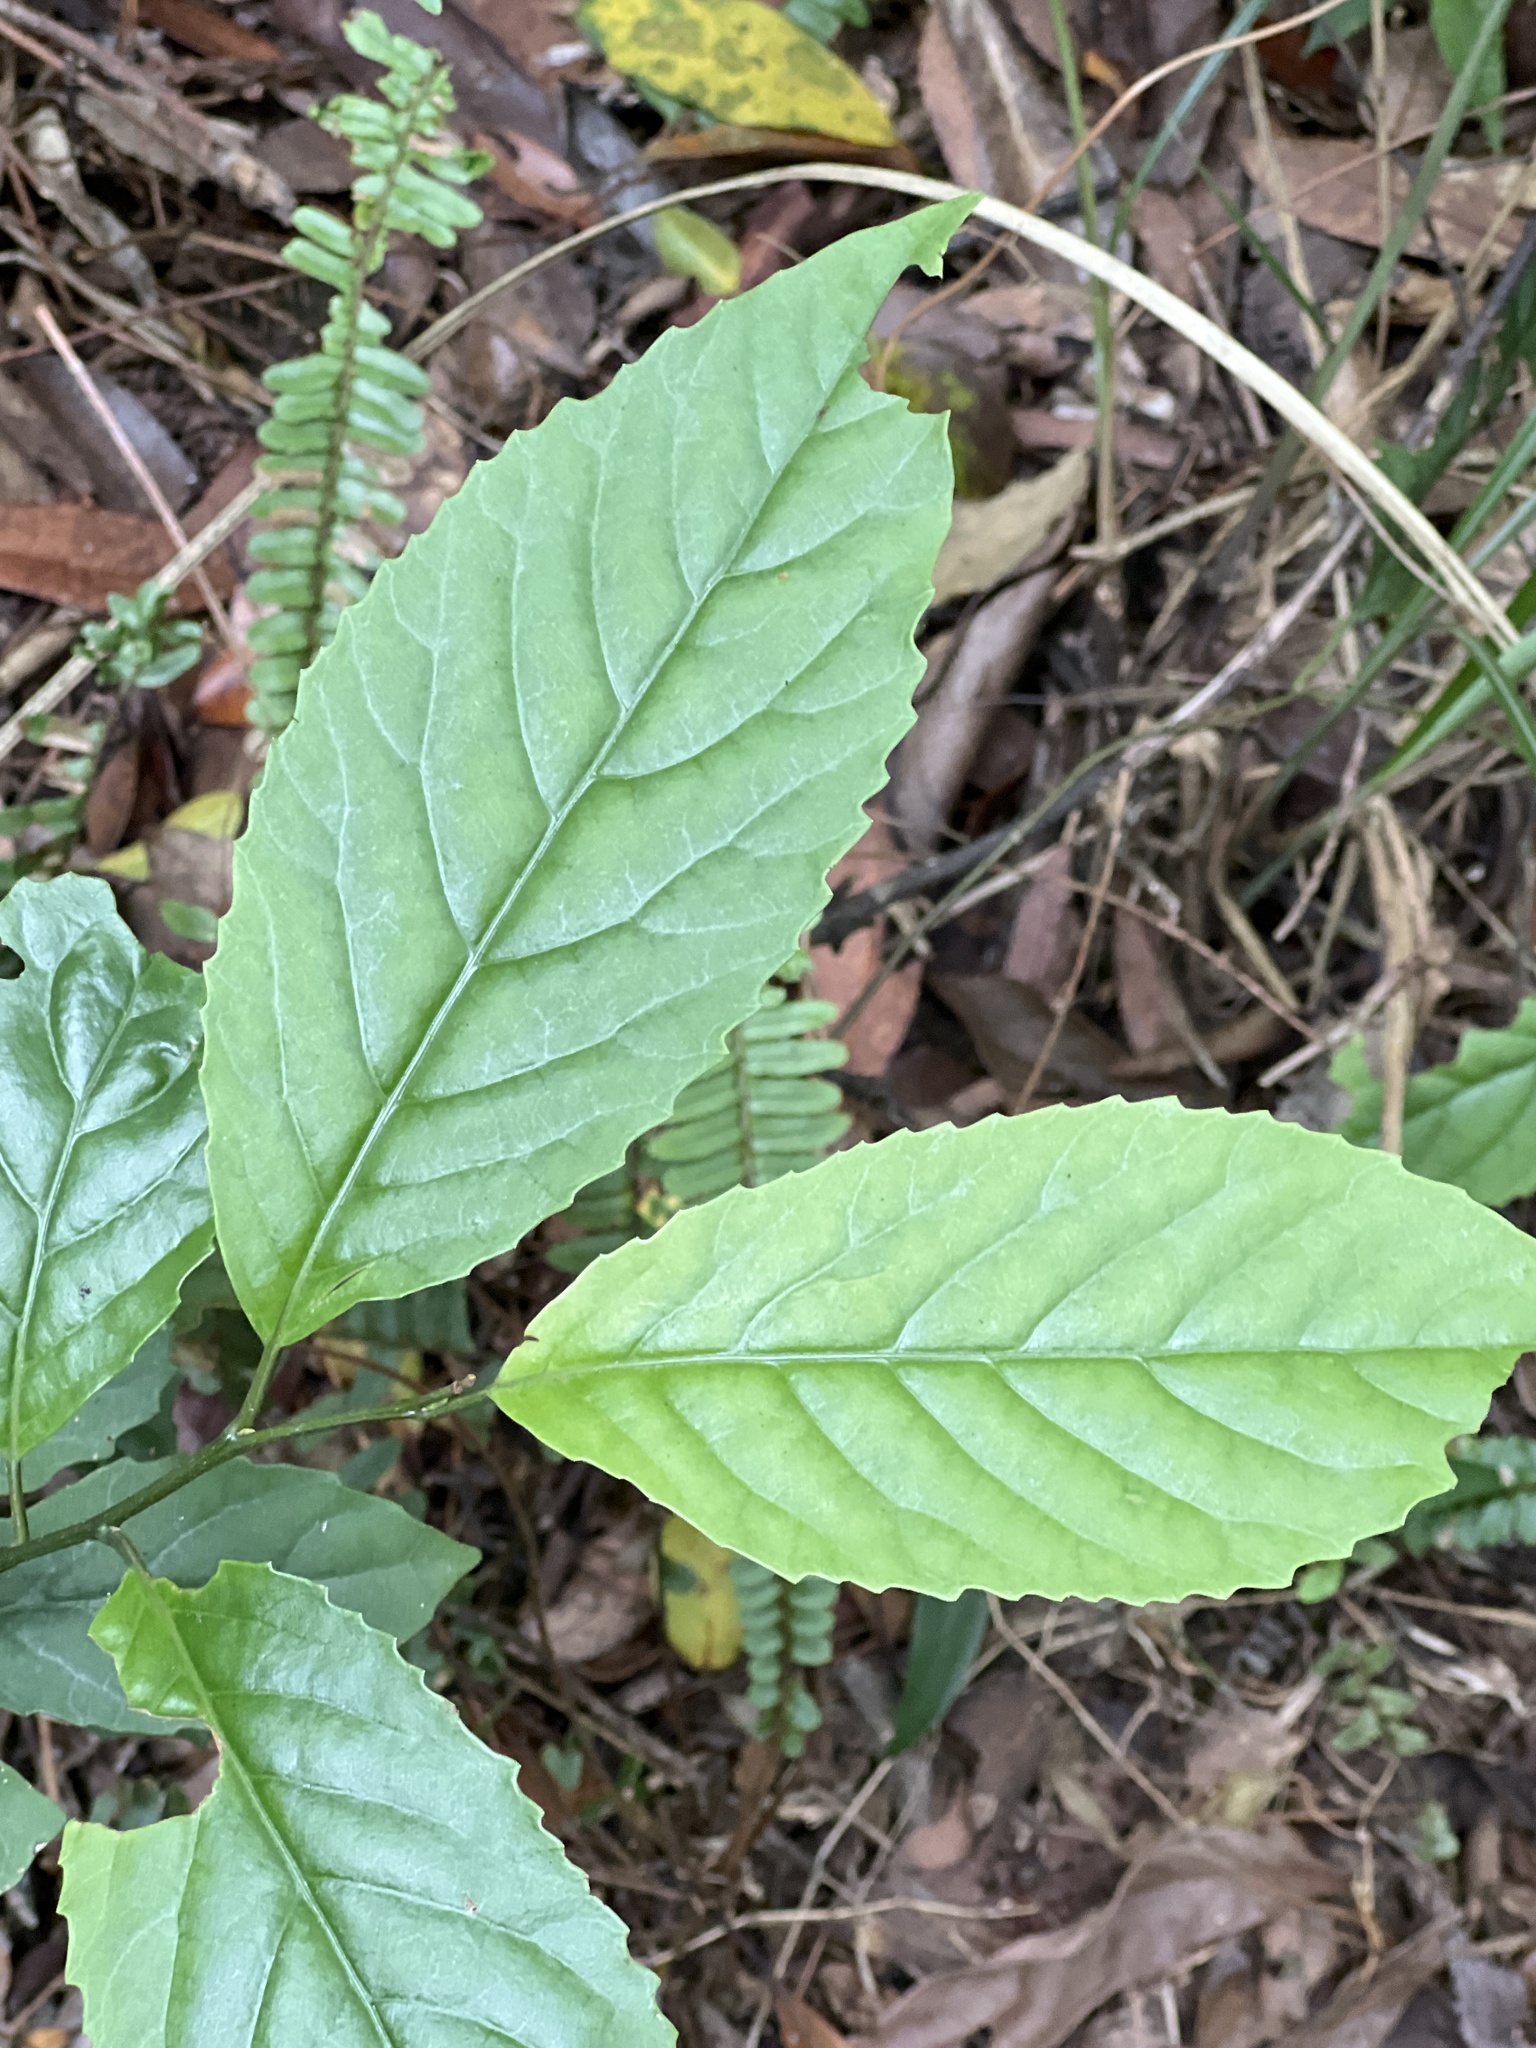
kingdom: Plantae
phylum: Tracheophyta
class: Magnoliopsida
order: Ericales
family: Primulaceae
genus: Maesa
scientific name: Maesa perlaria
